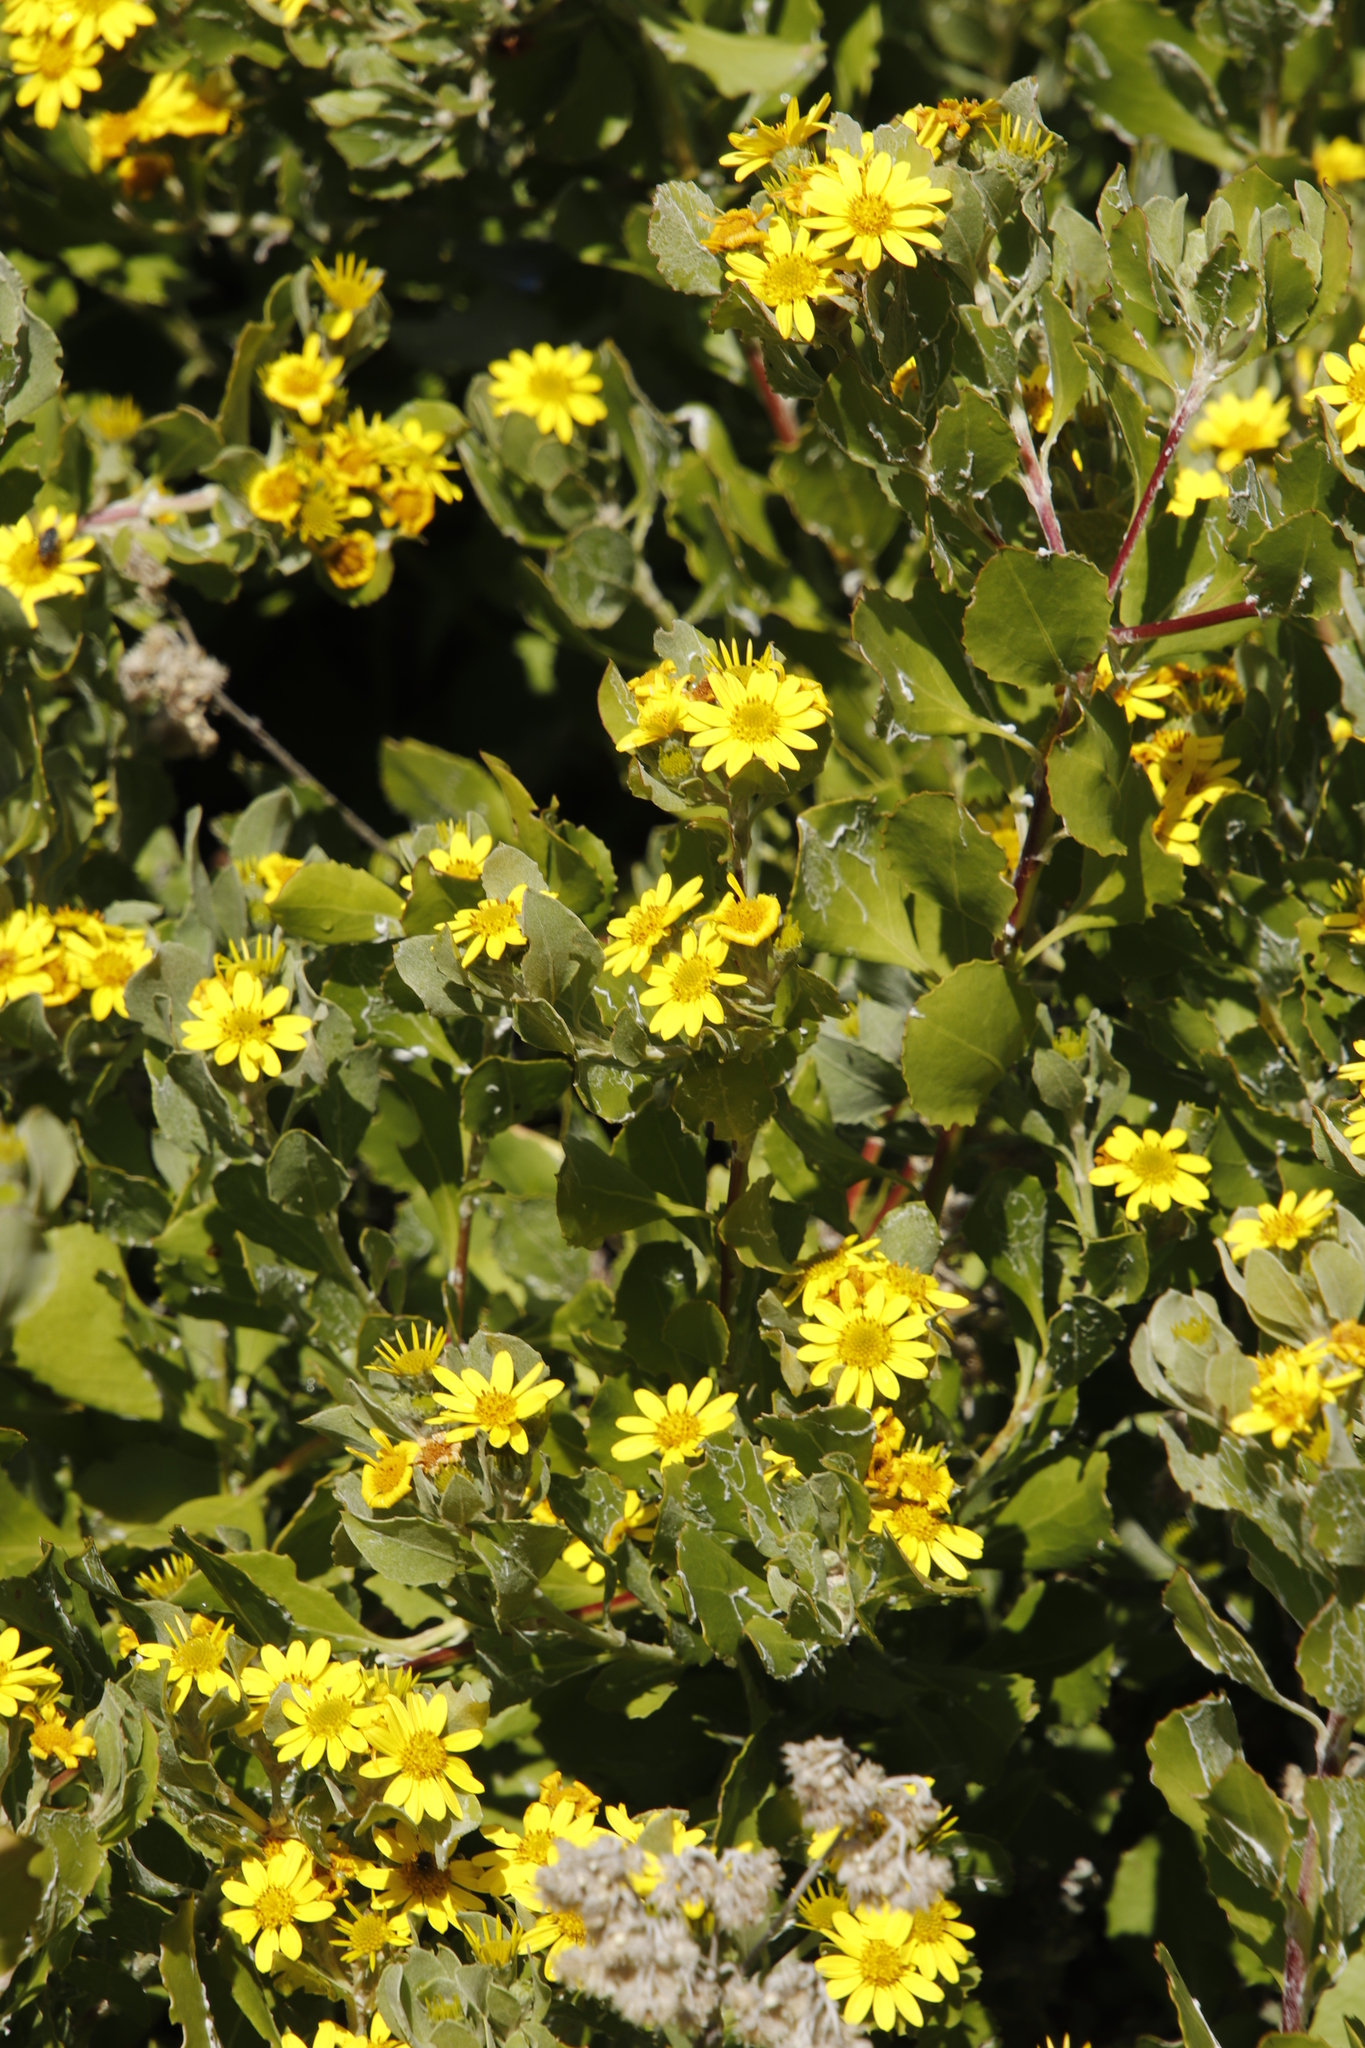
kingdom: Plantae
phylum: Tracheophyta
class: Magnoliopsida
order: Asterales
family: Asteraceae
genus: Osteospermum
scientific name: Osteospermum moniliferum
